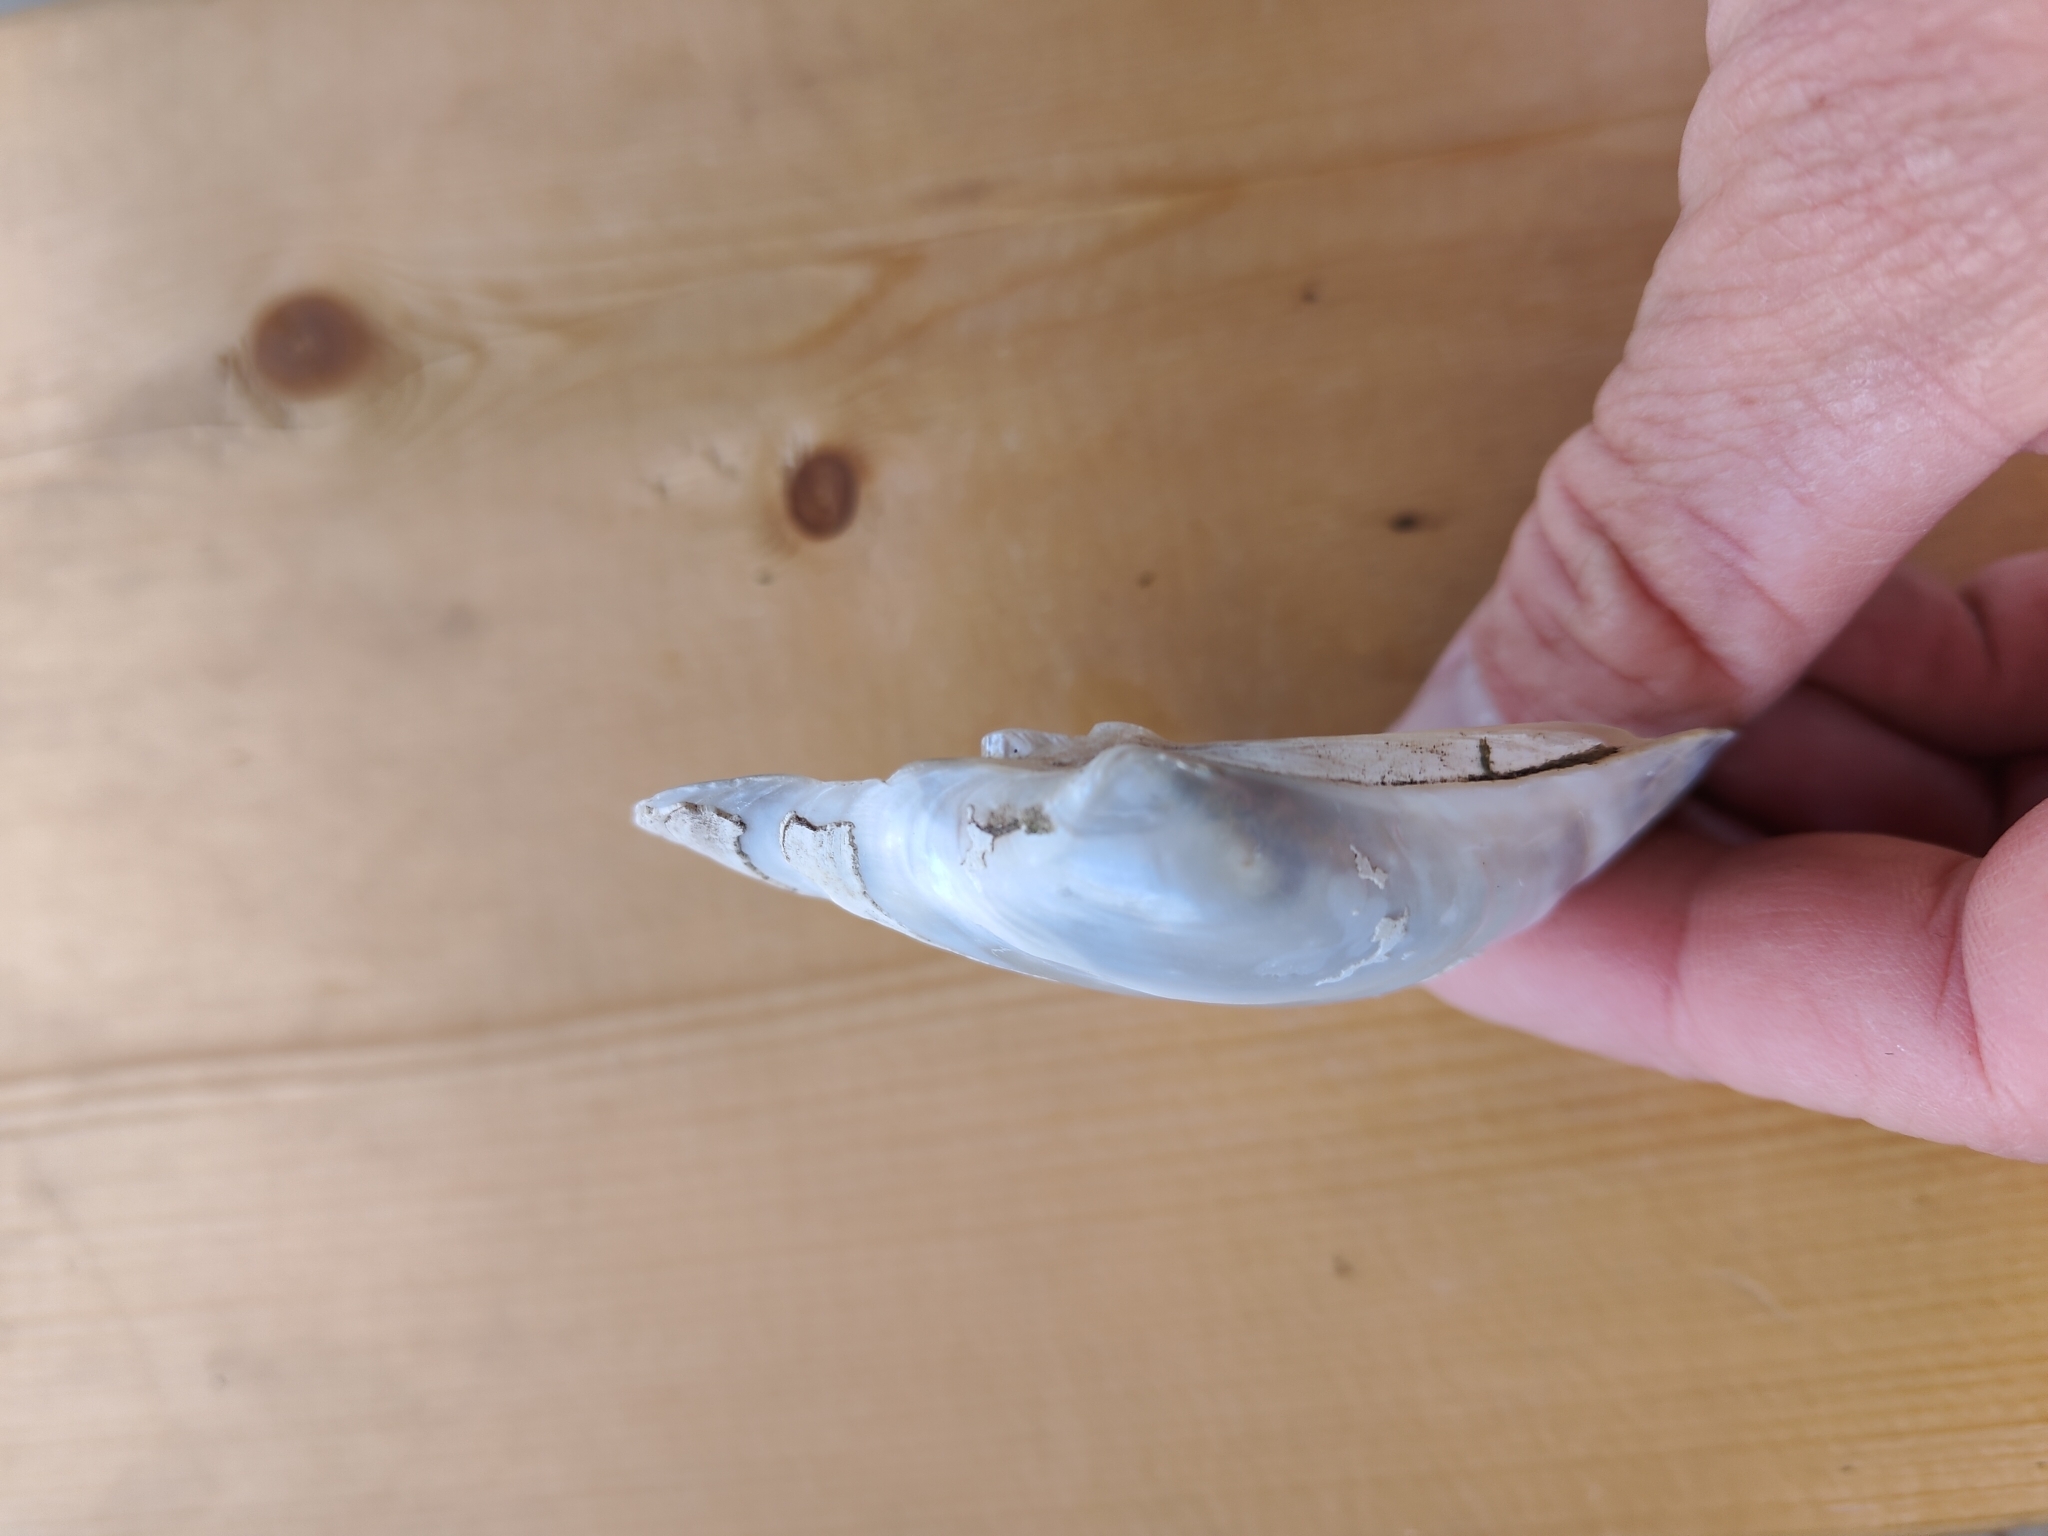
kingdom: Animalia
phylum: Mollusca
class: Bivalvia
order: Unionida
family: Unionidae
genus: Lampsilis
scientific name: Lampsilis cardium
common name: Plain pocketbook
